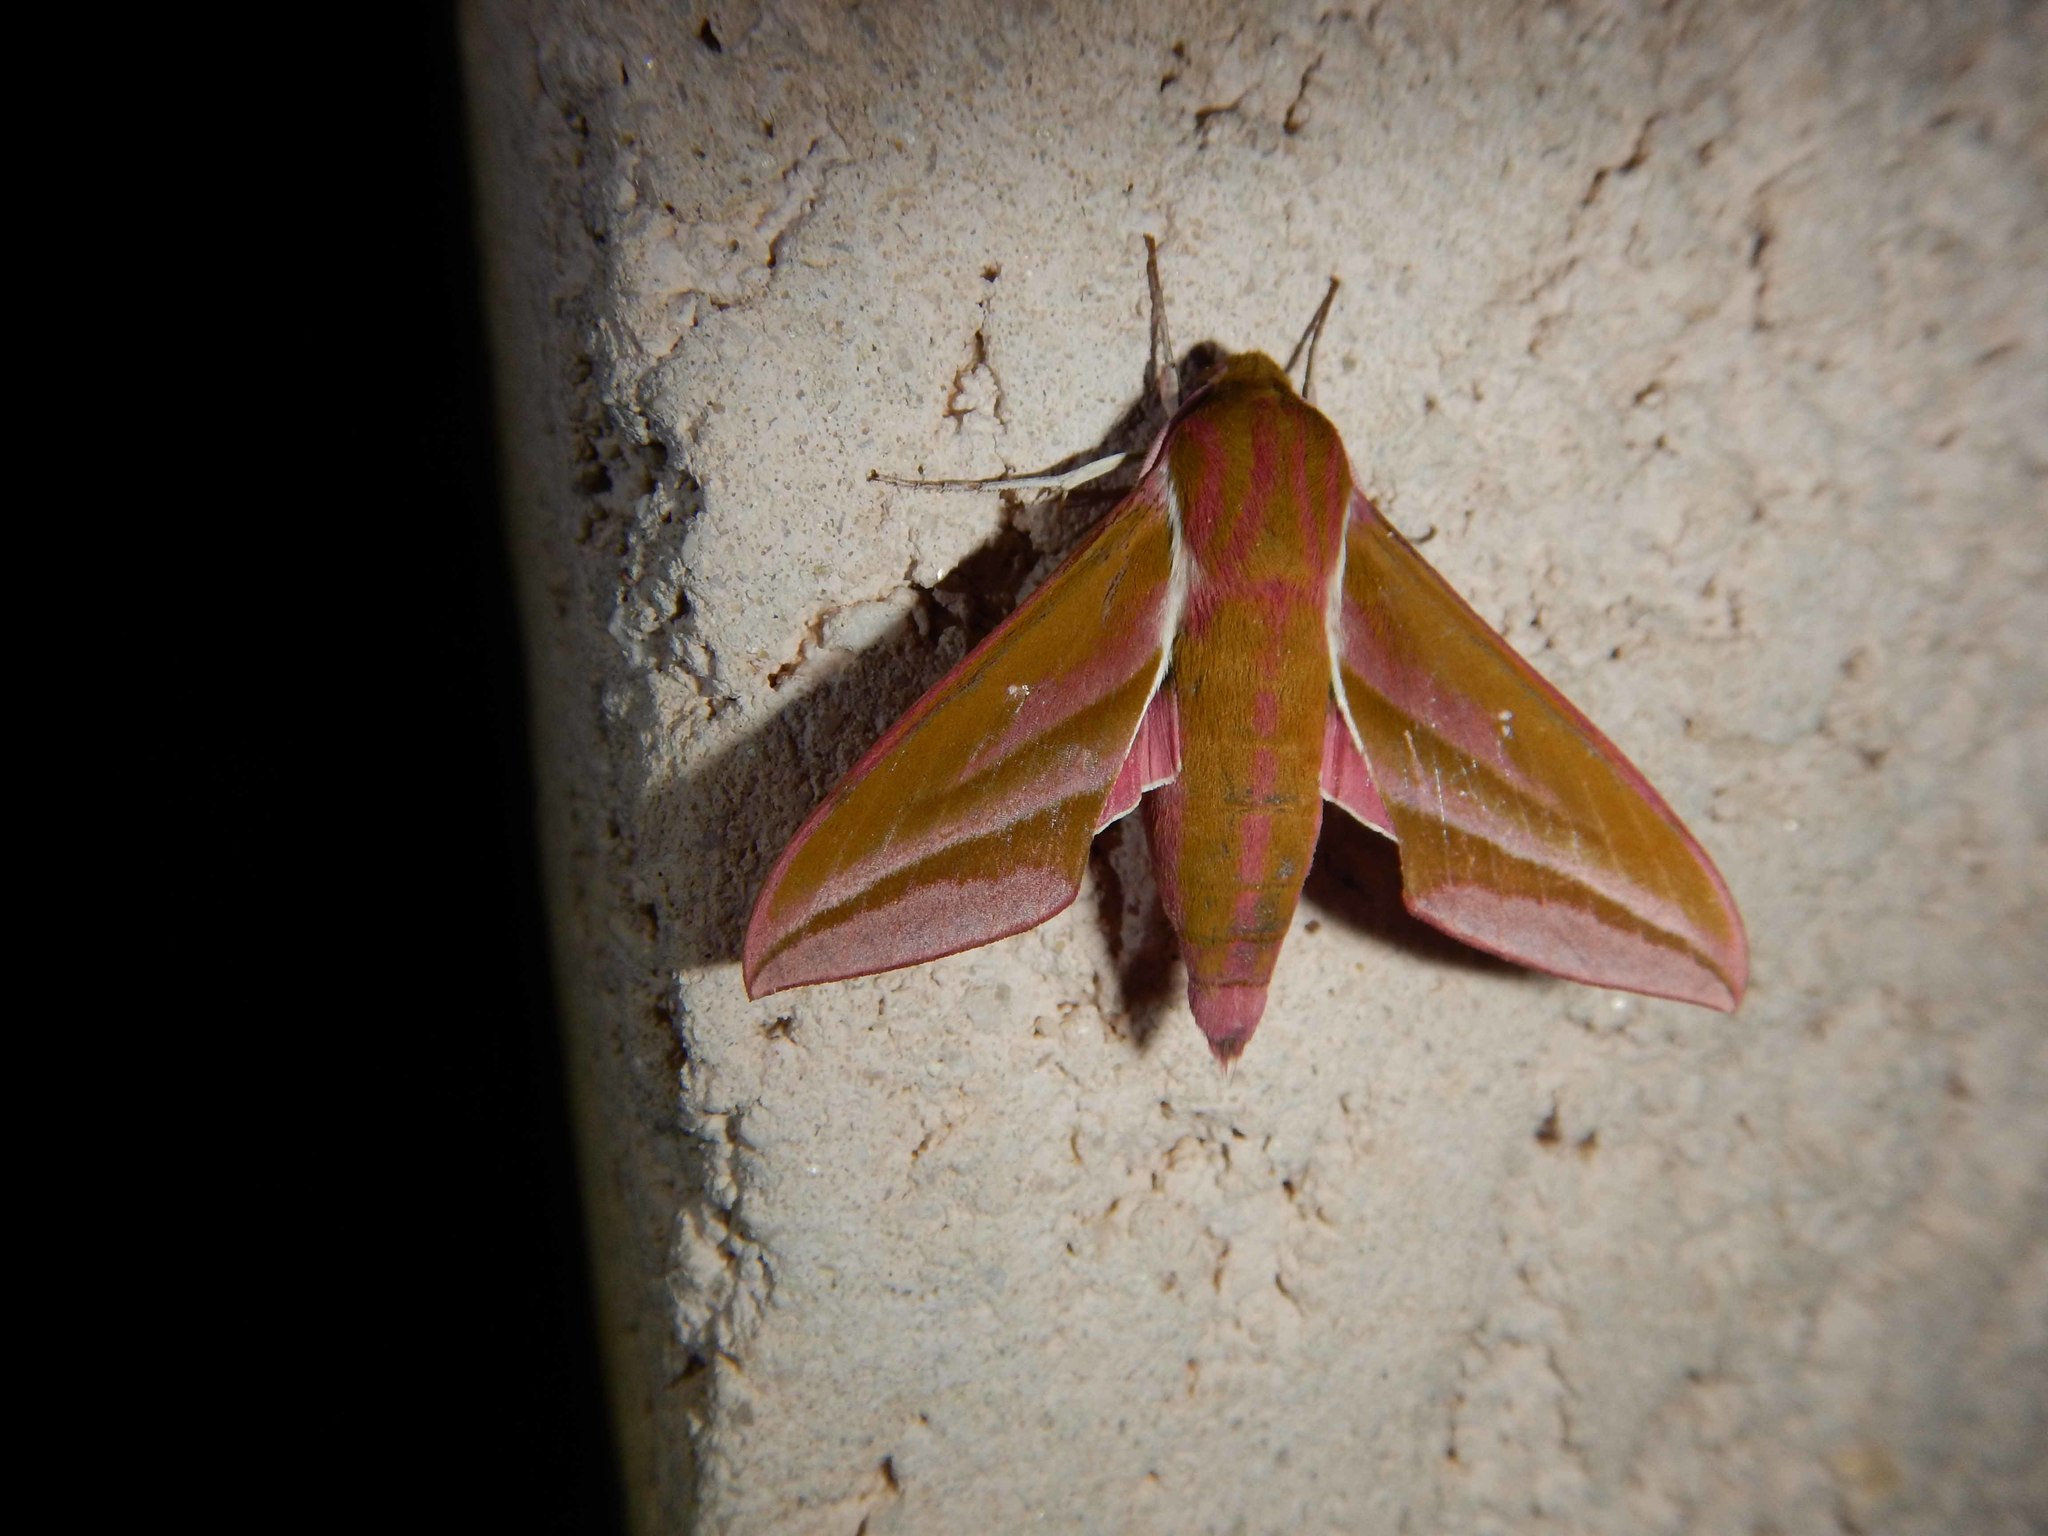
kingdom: Animalia
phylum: Arthropoda
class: Insecta
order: Lepidoptera
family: Sphingidae
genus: Deilephila
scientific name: Deilephila elpenor
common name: Elephant hawk-moth
